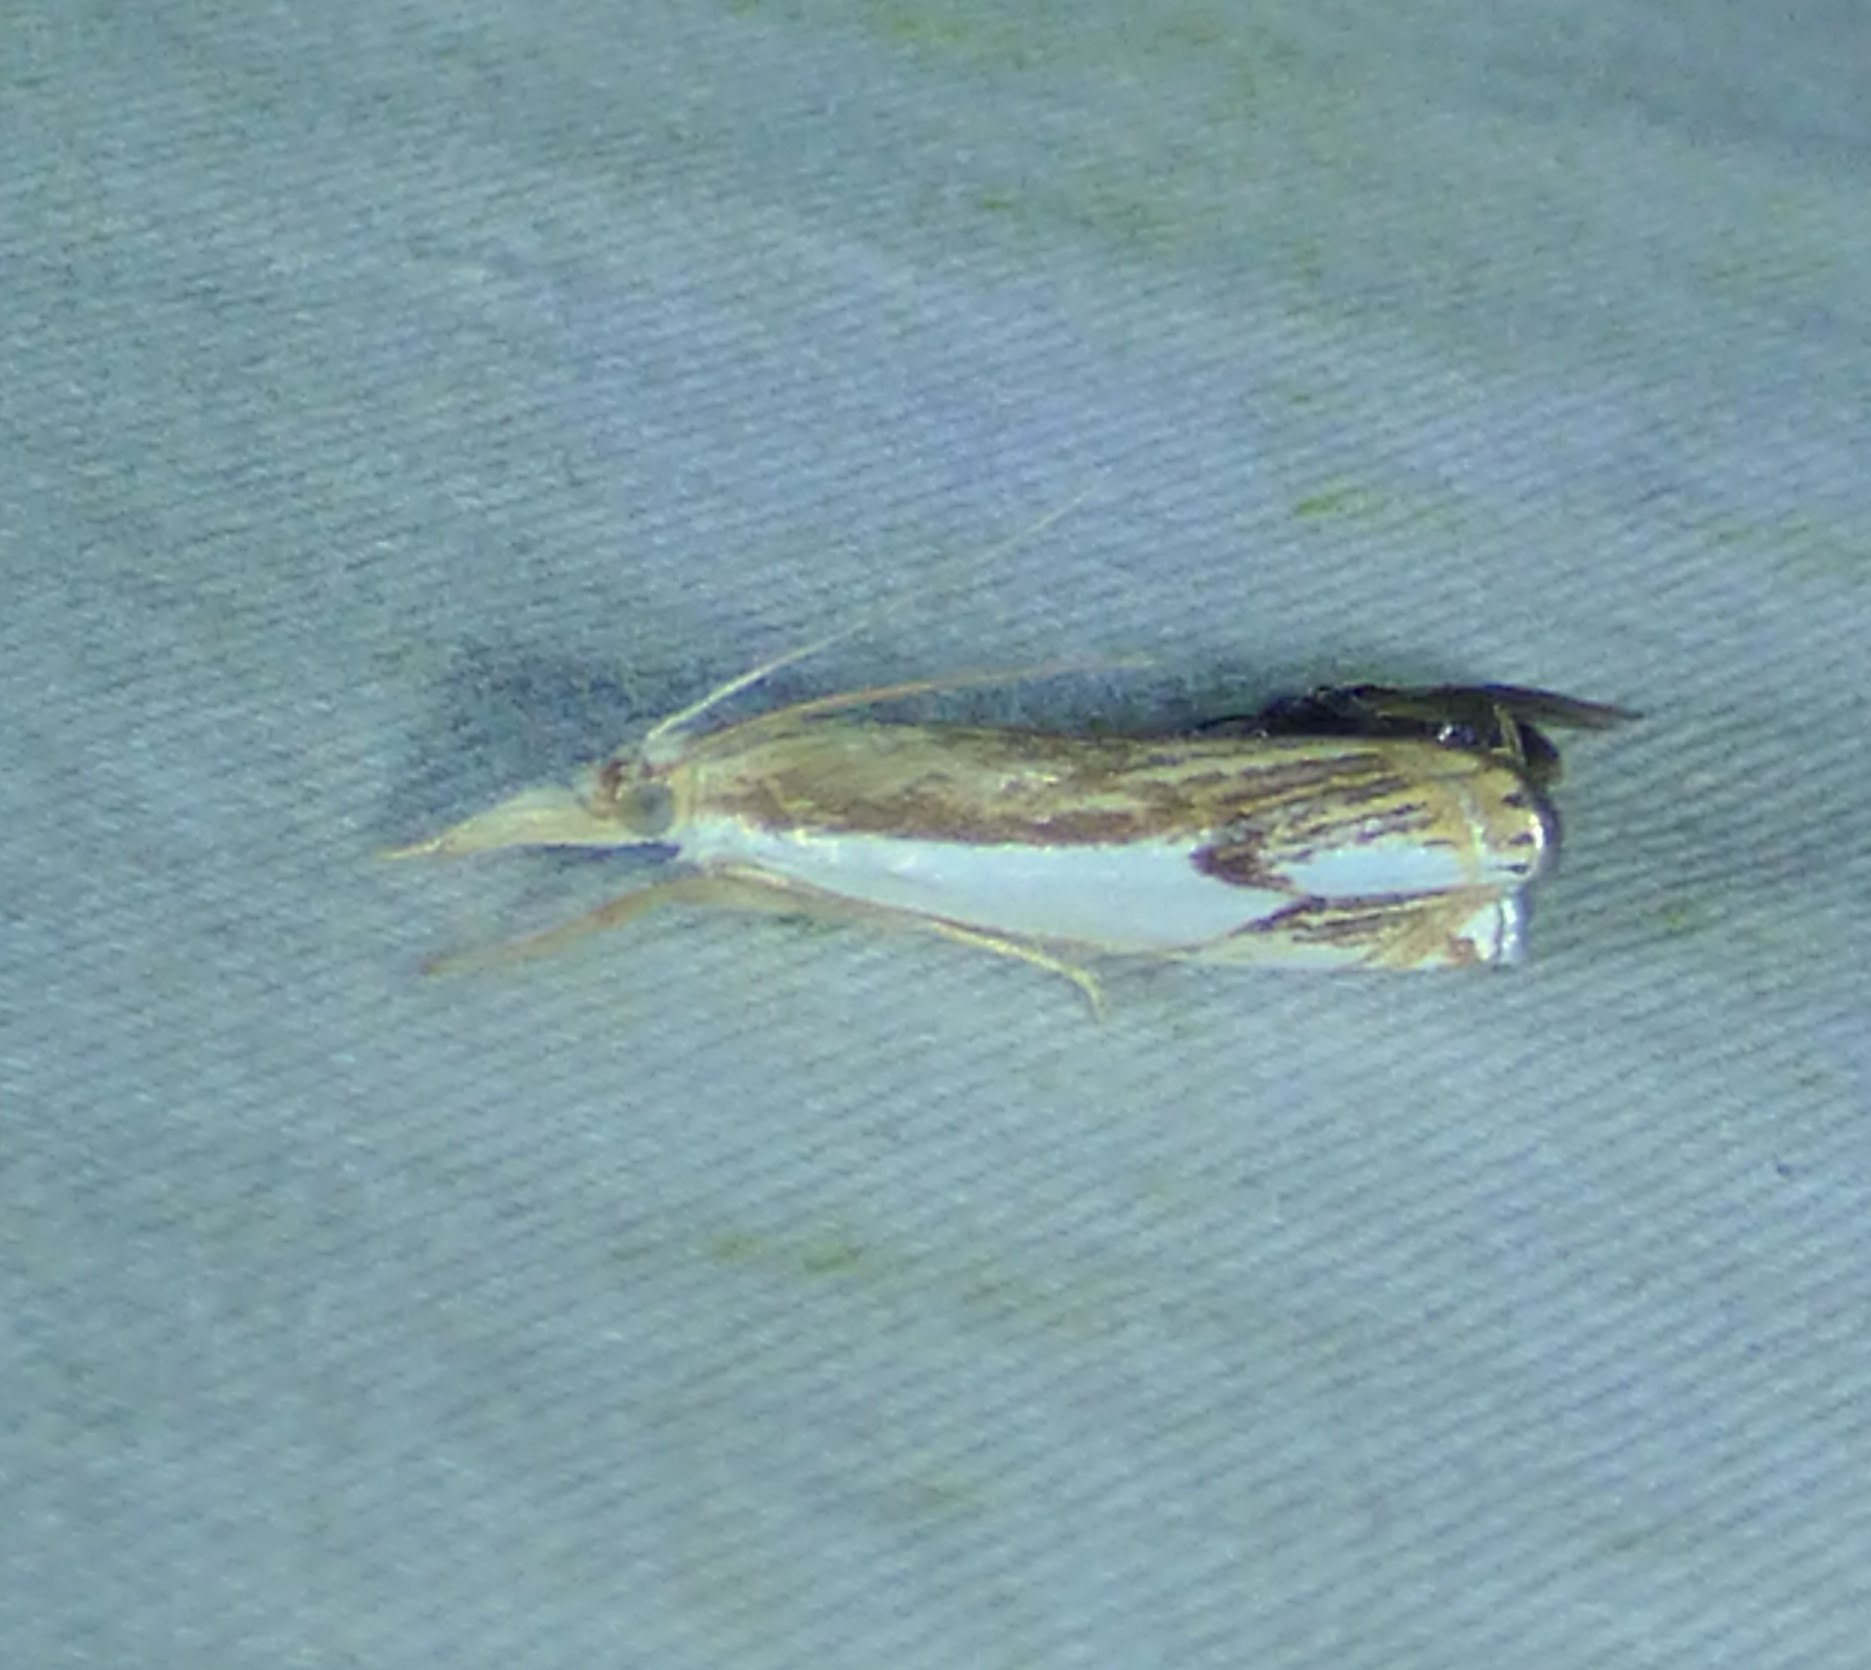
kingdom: Animalia
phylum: Arthropoda
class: Insecta
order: Lepidoptera
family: Crambidae
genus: Crambus
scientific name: Crambus agitatellus
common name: Double-banded grass-veneer
